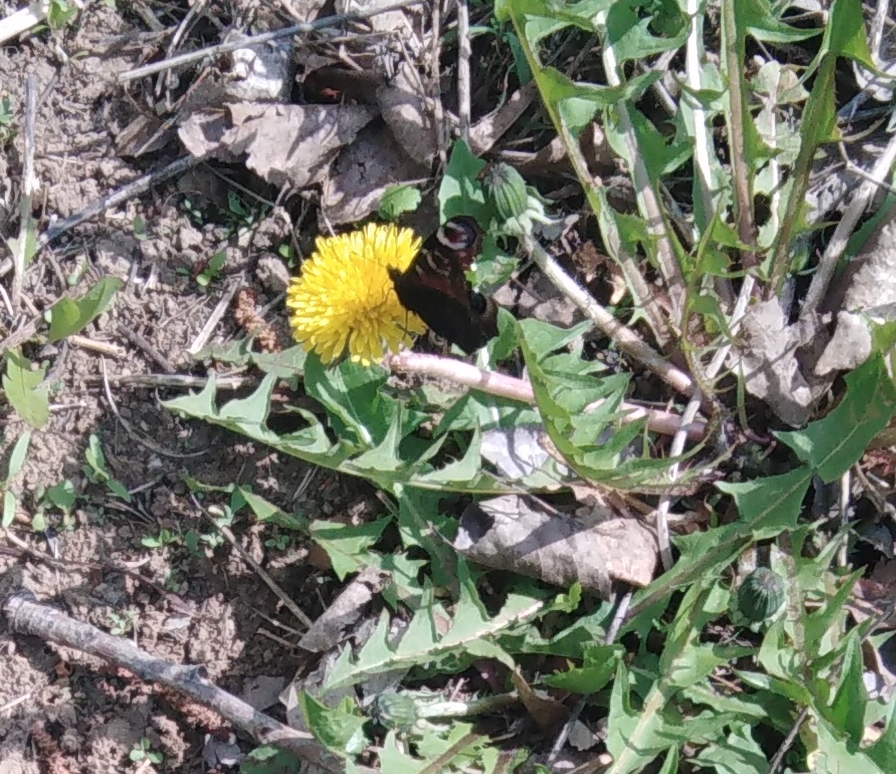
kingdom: Animalia
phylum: Arthropoda
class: Insecta
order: Lepidoptera
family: Nymphalidae
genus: Aglais
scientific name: Aglais io
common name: Peacock
